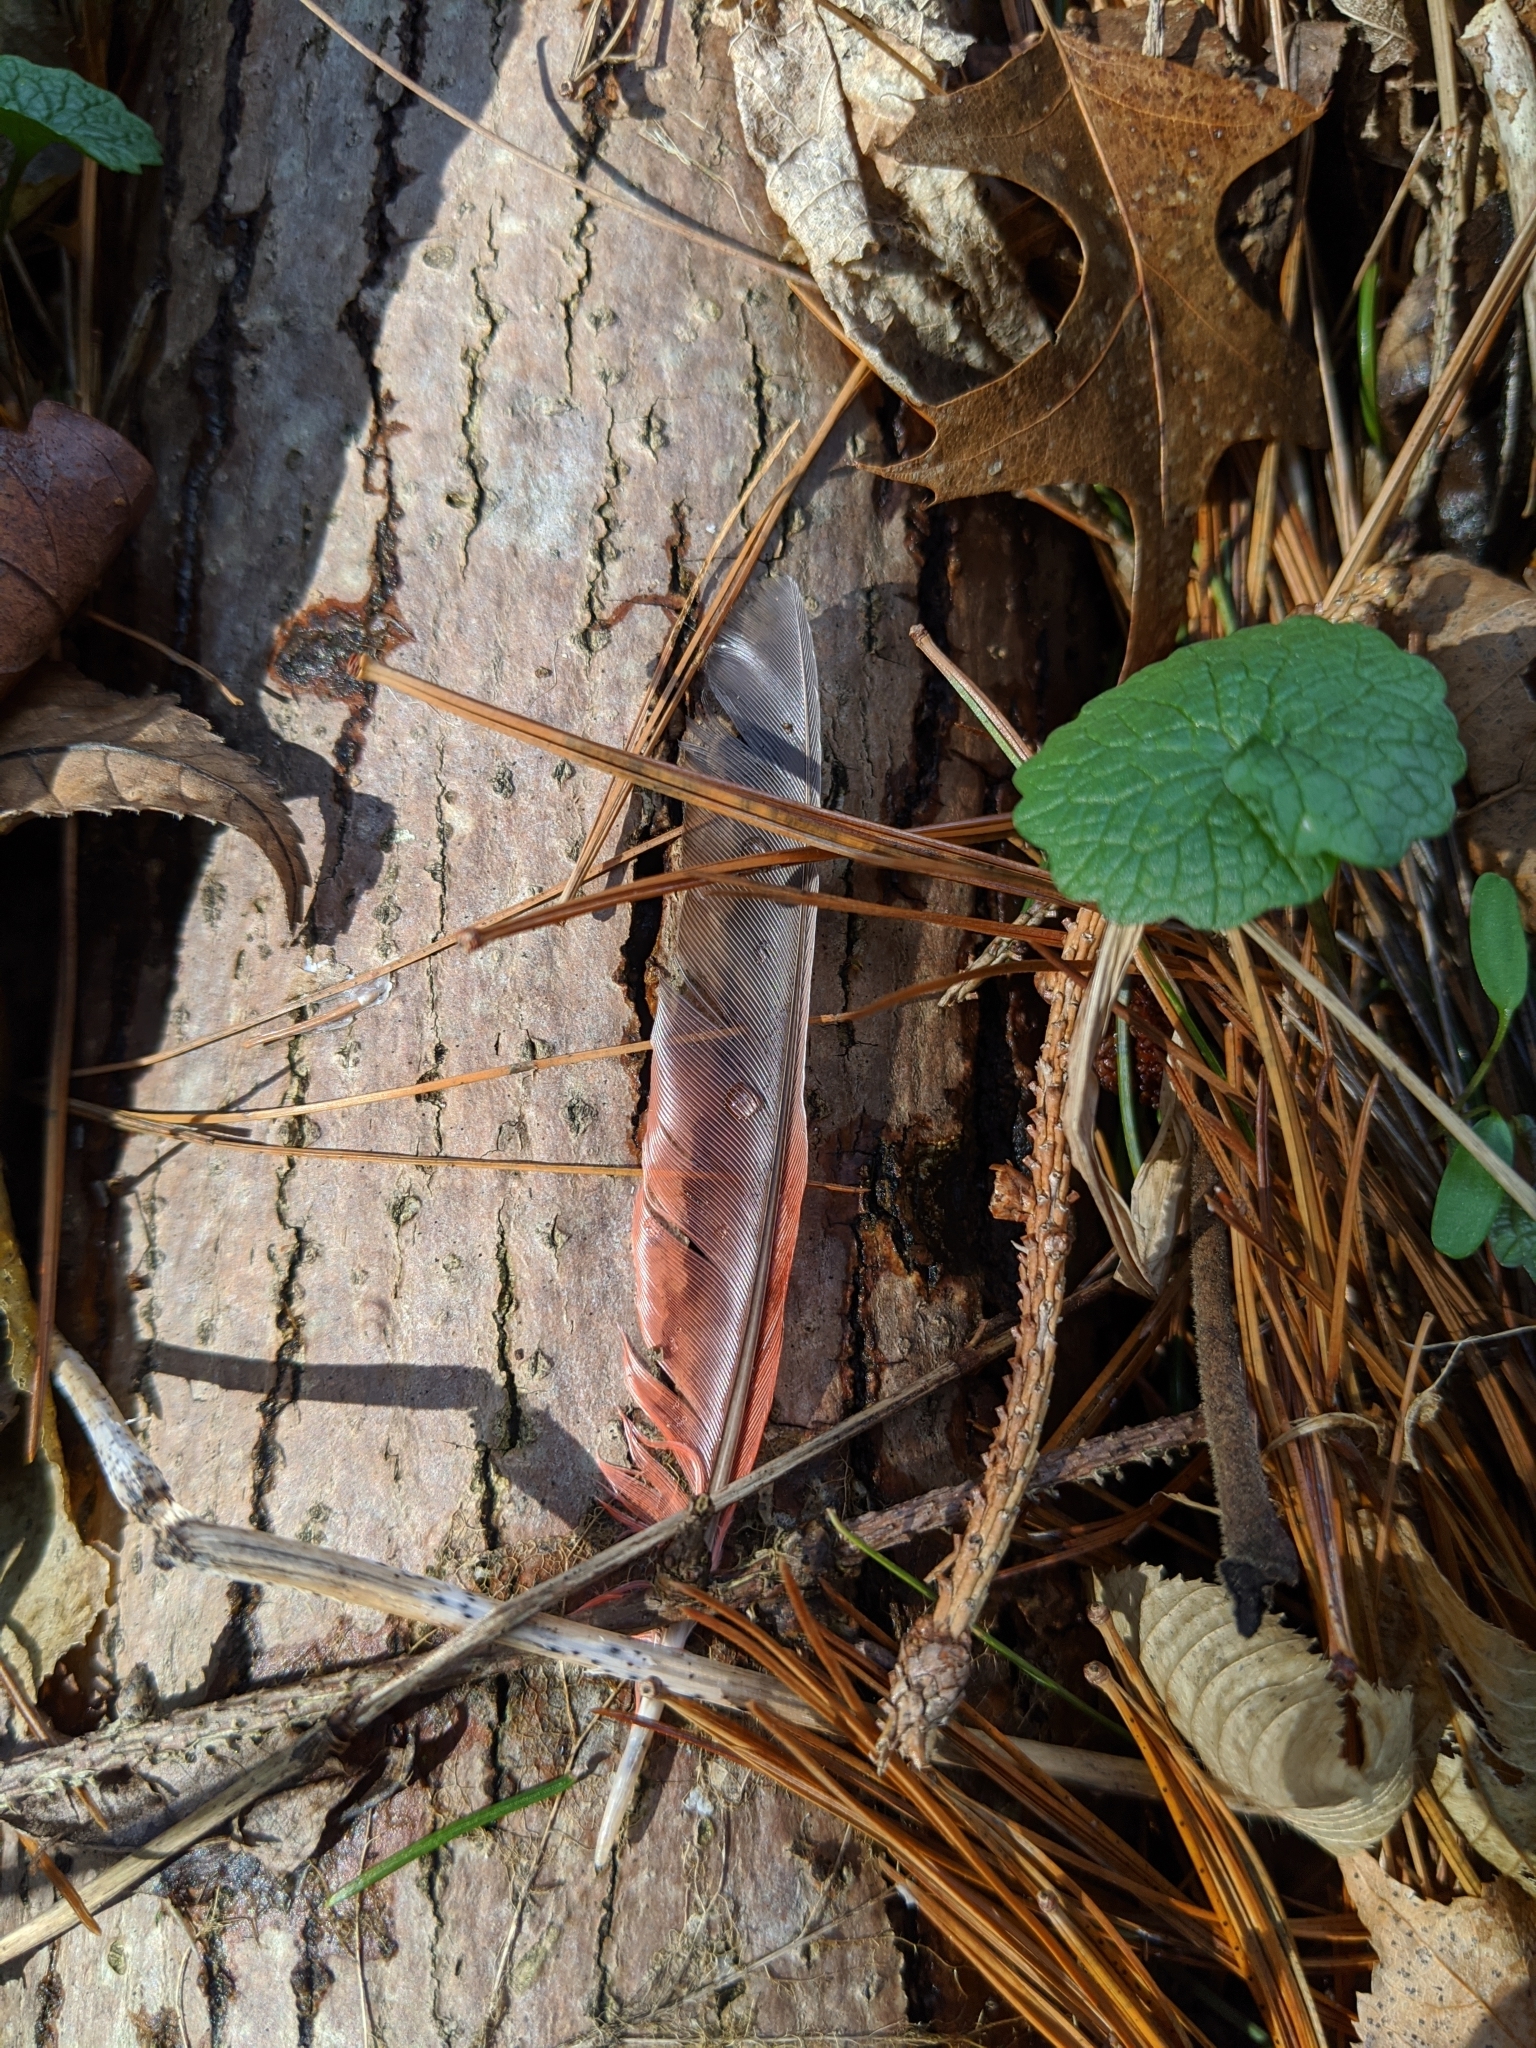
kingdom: Animalia
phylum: Chordata
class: Aves
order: Passeriformes
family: Cardinalidae
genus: Cardinalis
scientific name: Cardinalis cardinalis
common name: Northern cardinal
